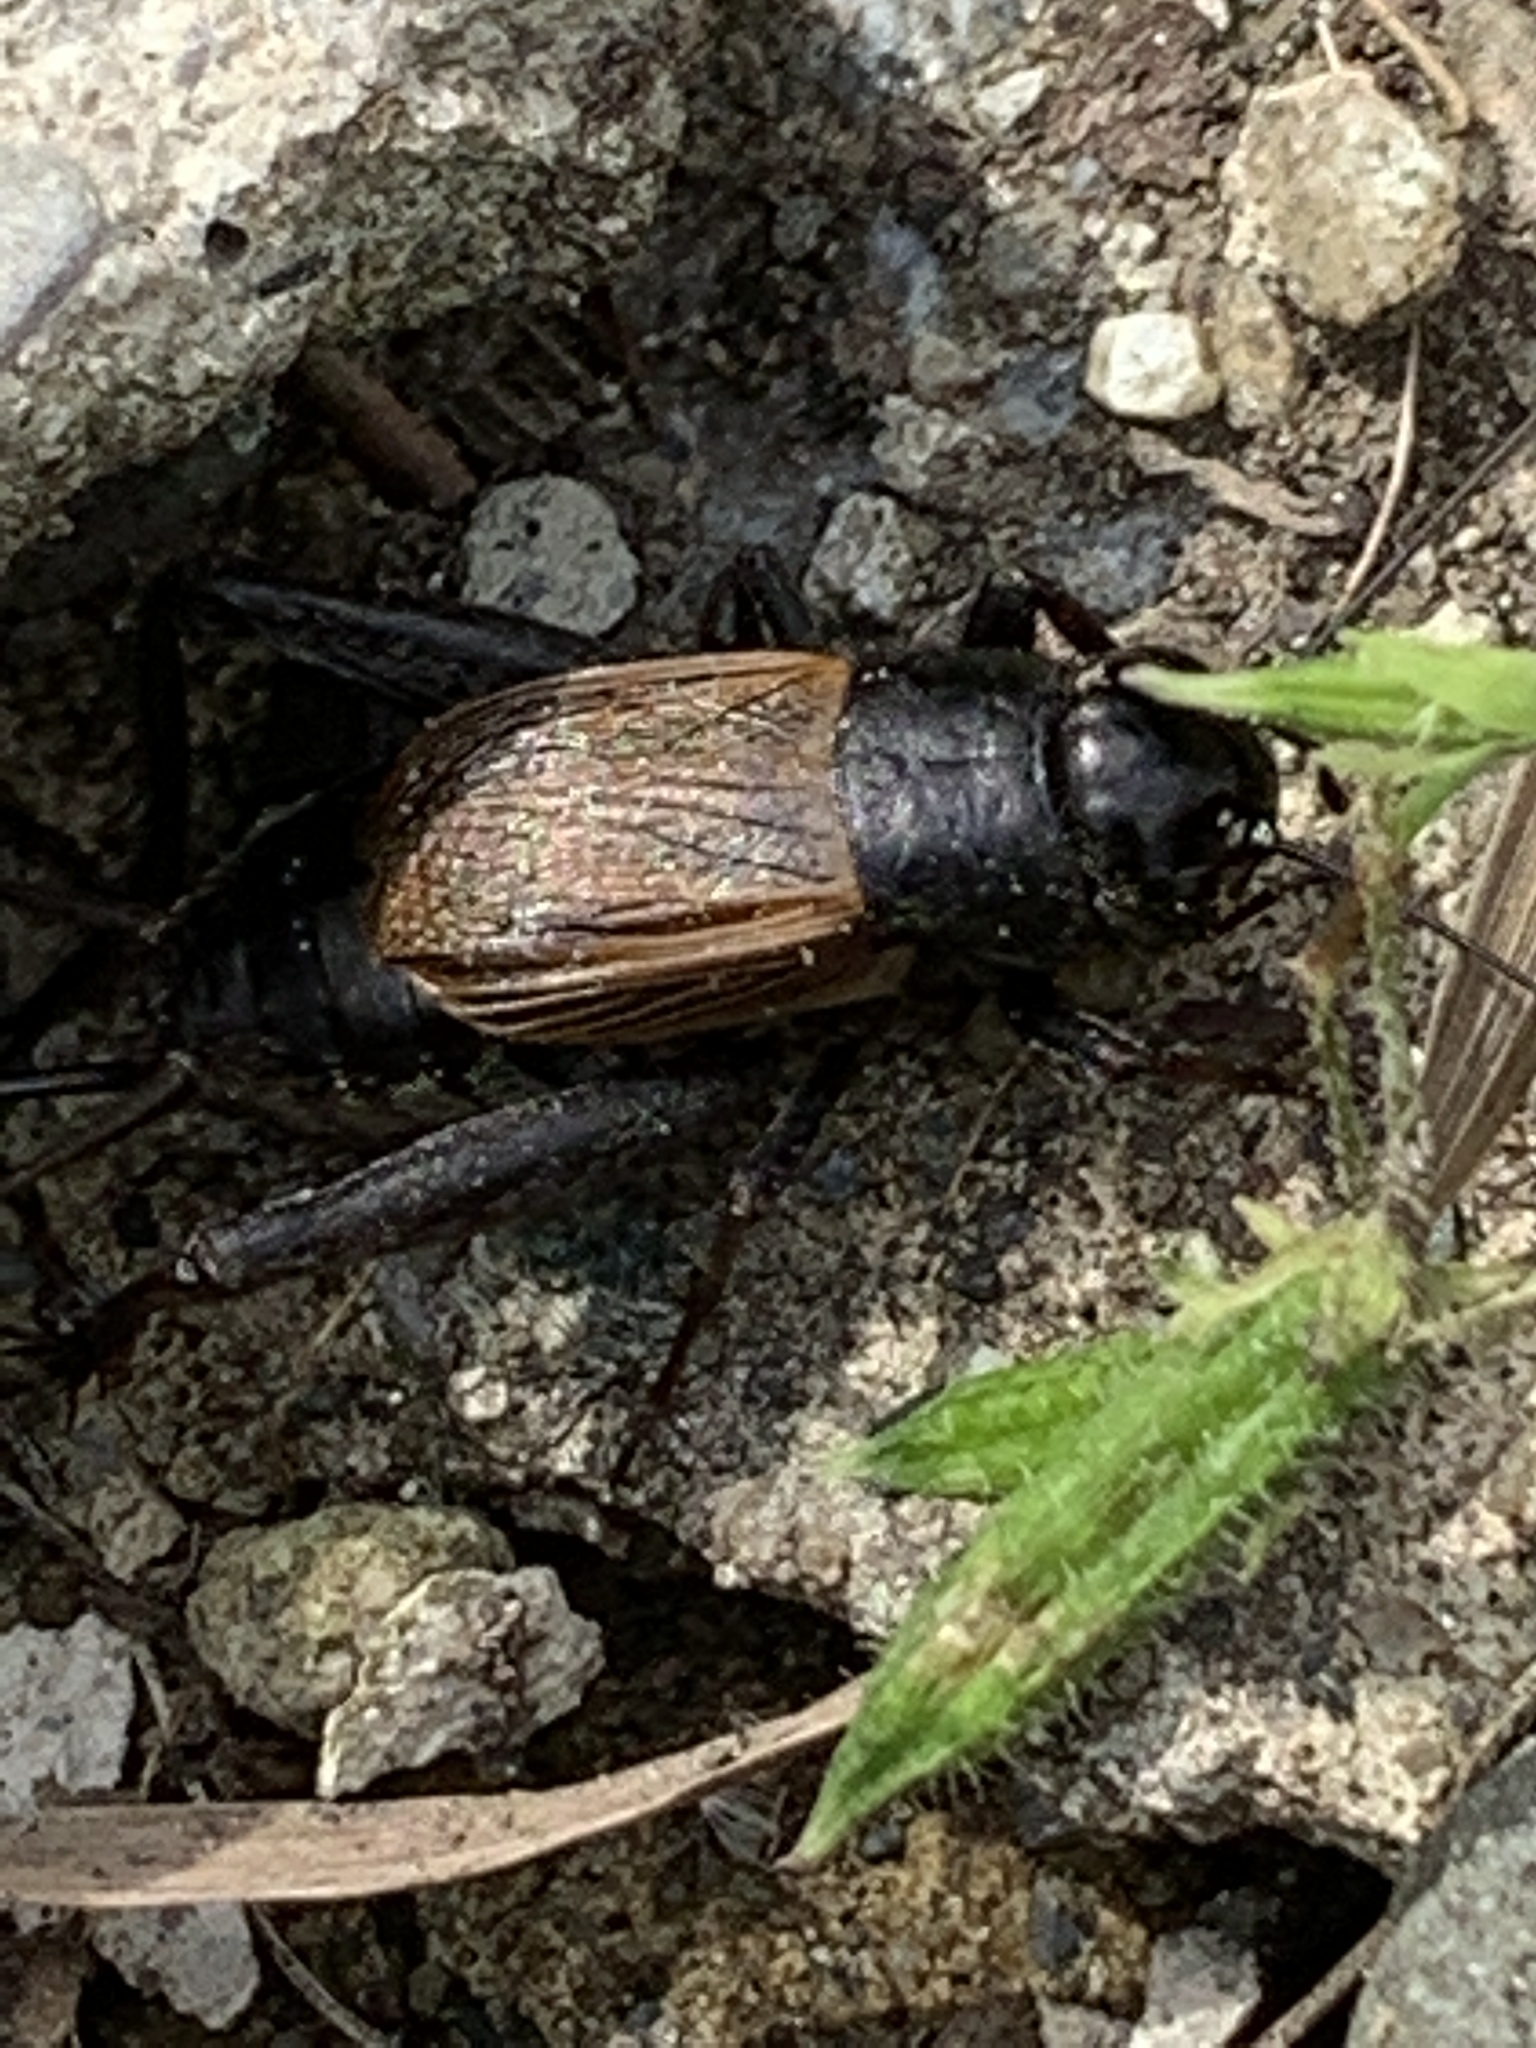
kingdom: Animalia
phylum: Arthropoda
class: Insecta
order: Orthoptera
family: Gryllidae
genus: Gryllus
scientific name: Gryllus pennsylvanicus
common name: Fall field cricket
